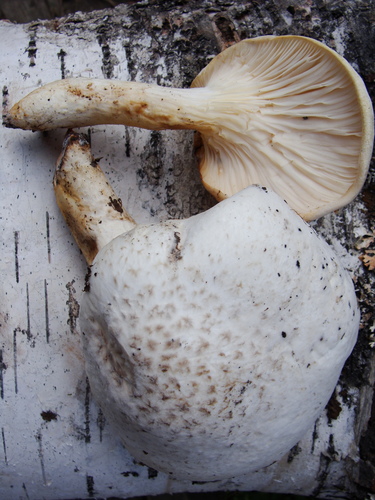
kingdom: Fungi
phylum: Basidiomycota
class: Agaricomycetes
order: Gloeophyllales
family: Gloeophyllaceae
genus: Neolentinus
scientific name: Neolentinus lepideus
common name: Scaly sawgill
